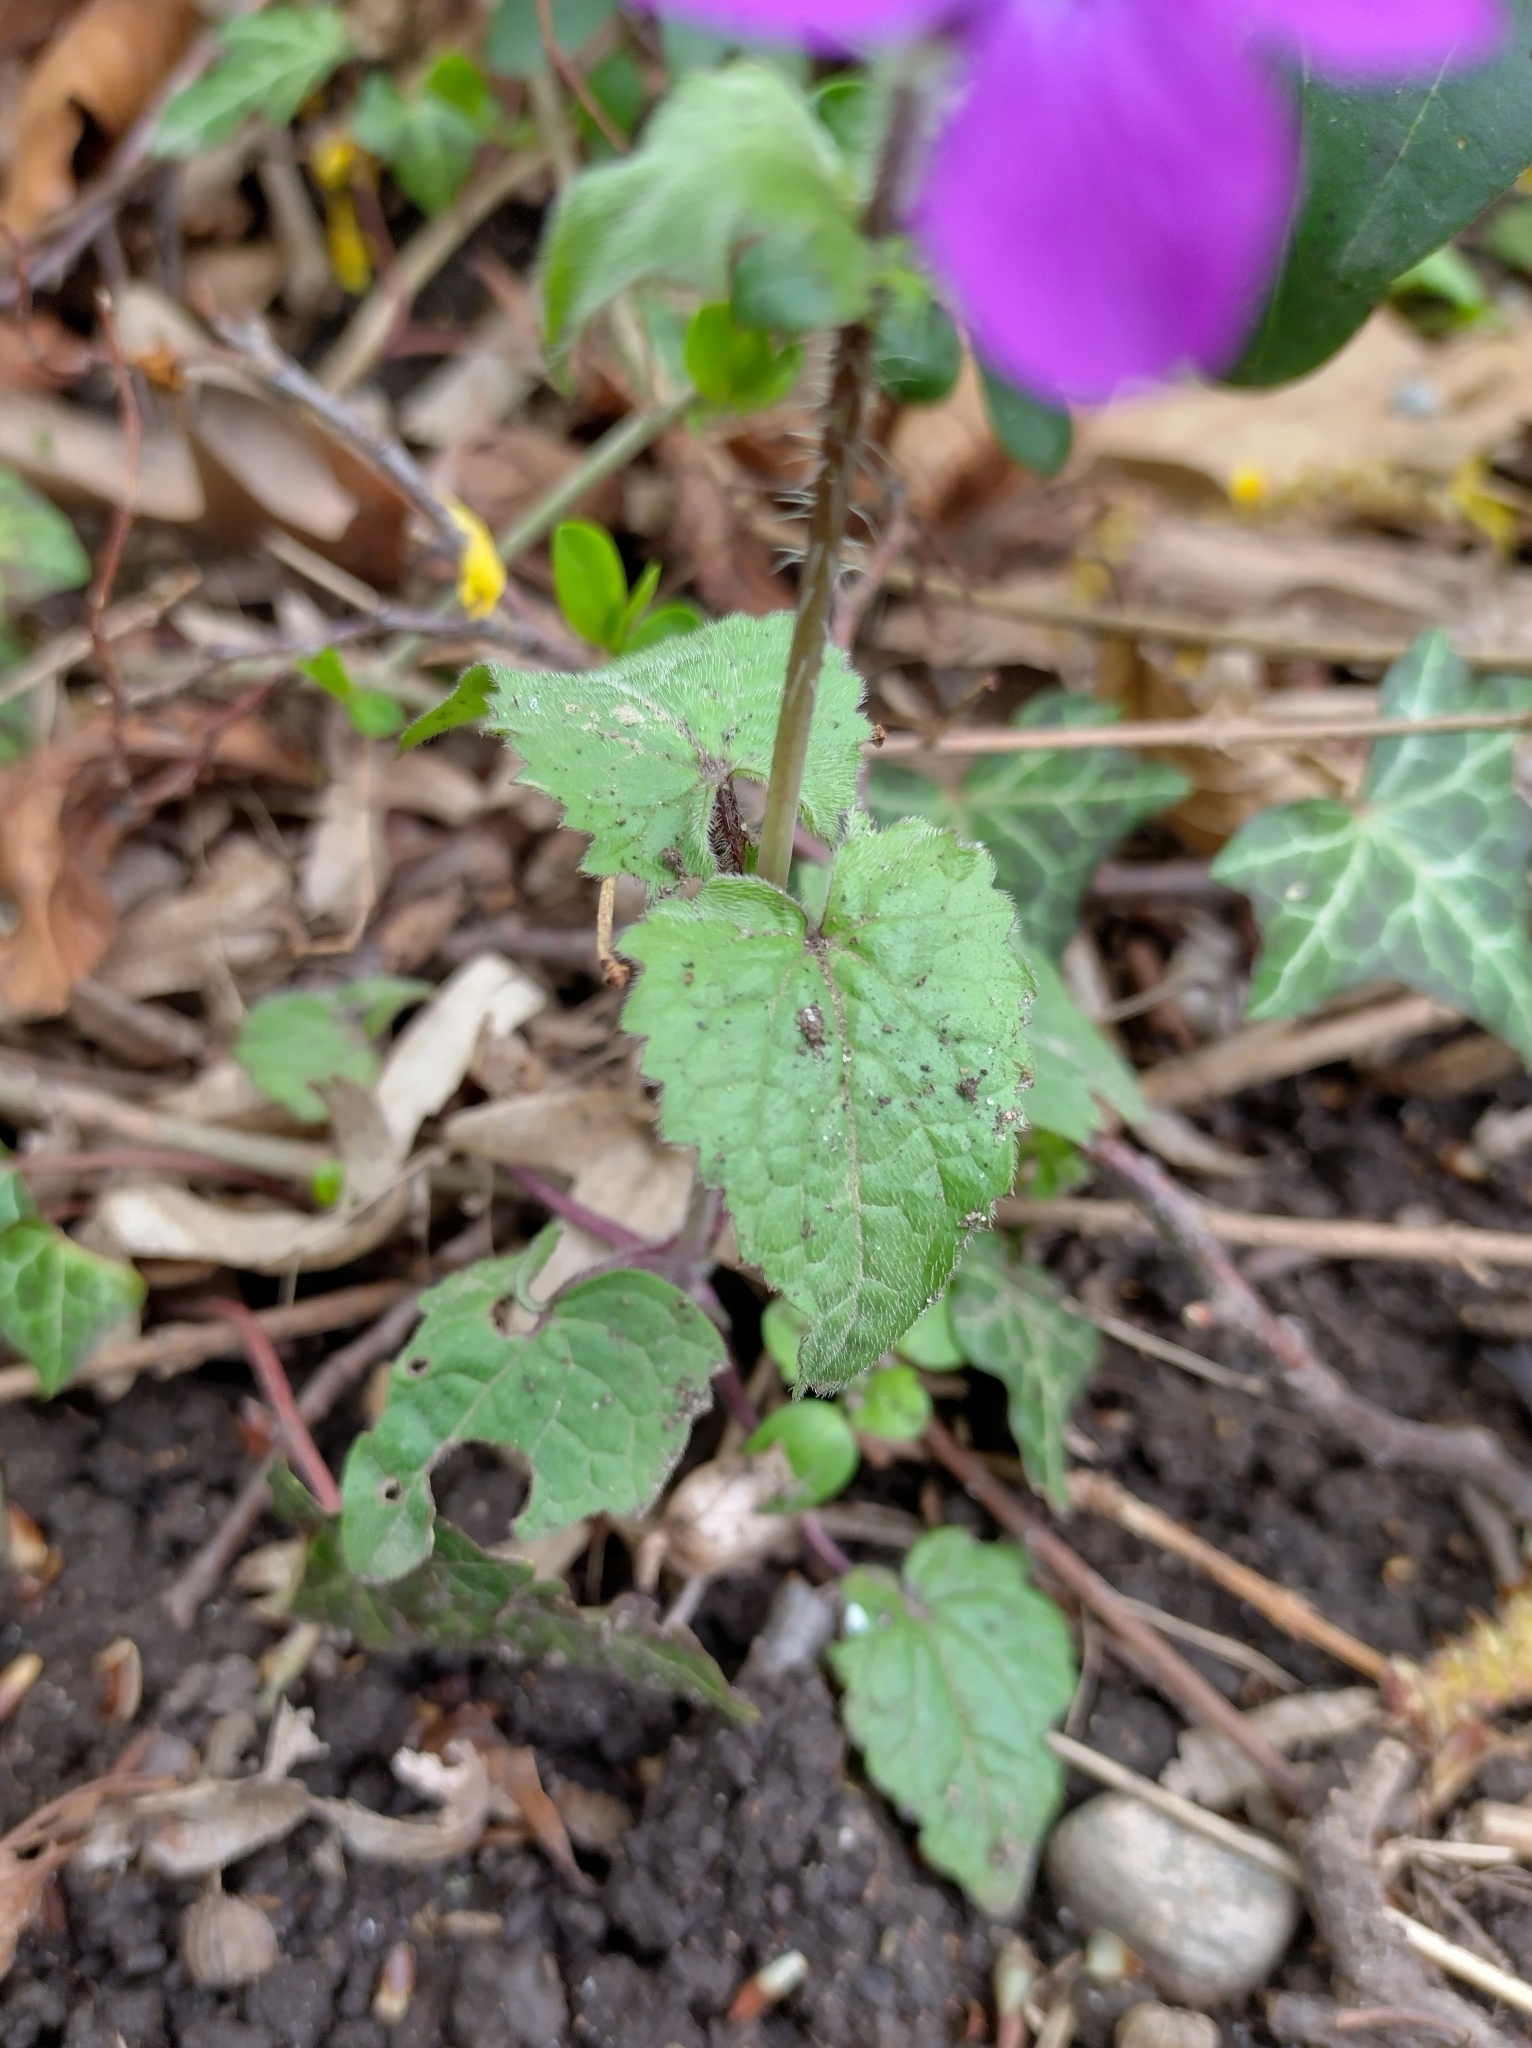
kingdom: Plantae
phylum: Tracheophyta
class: Magnoliopsida
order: Brassicales
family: Brassicaceae
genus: Lunaria
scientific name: Lunaria annua
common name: Honesty
